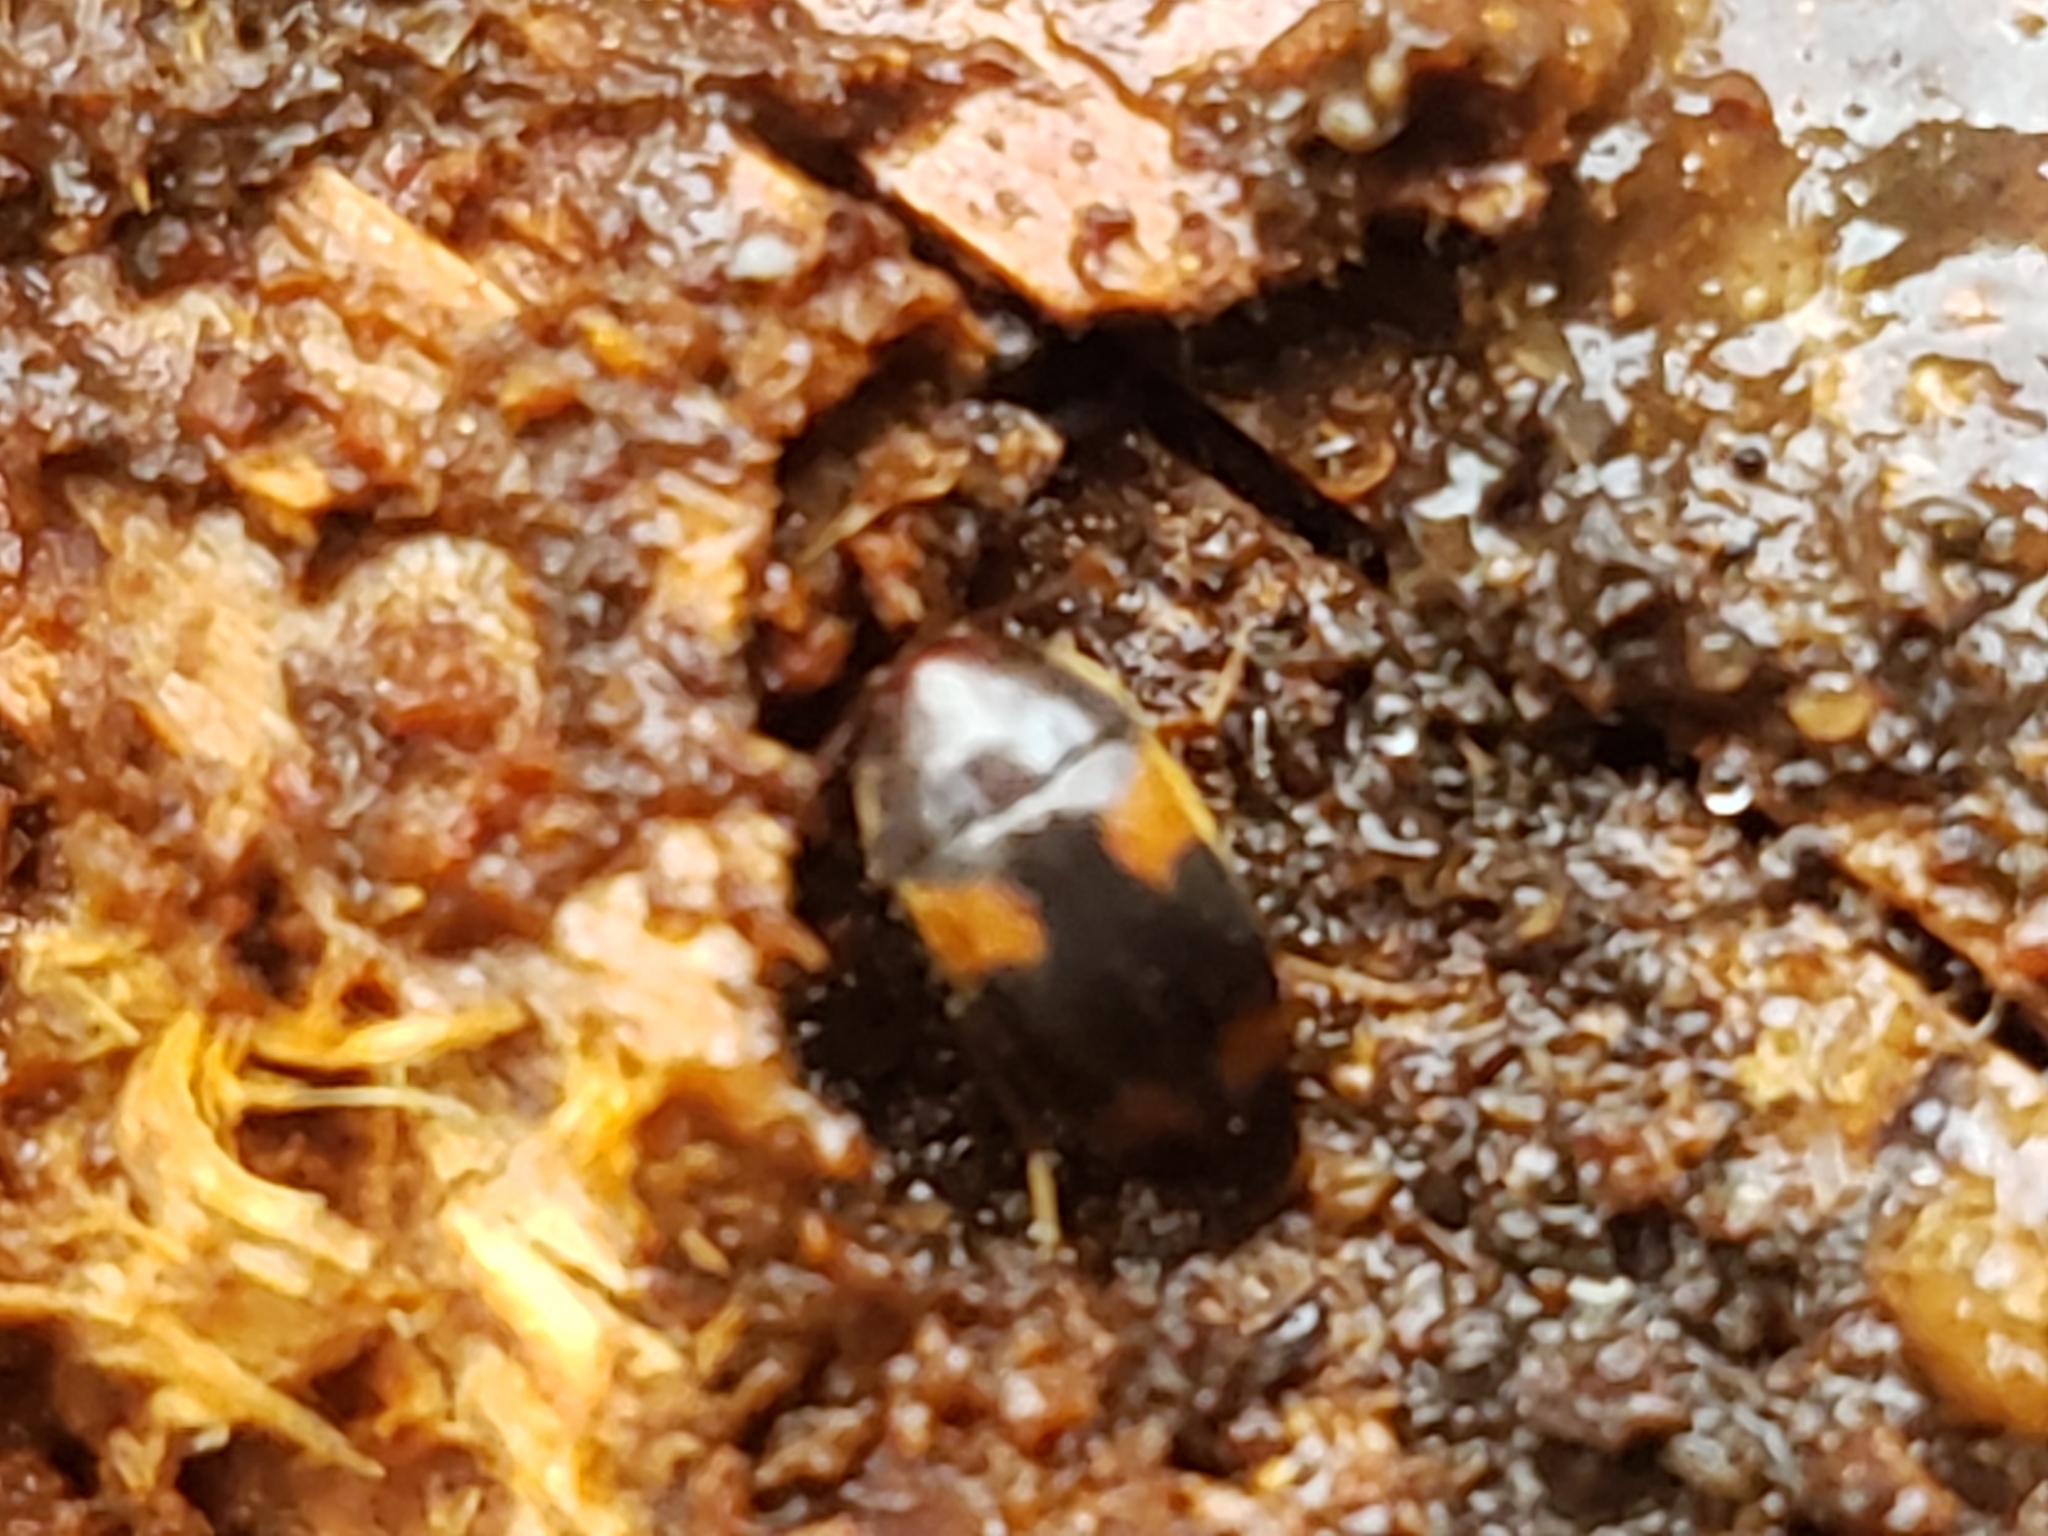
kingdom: Animalia
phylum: Arthropoda
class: Insecta
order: Coleoptera
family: Tetratomidae
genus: Holostrophus
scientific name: Holostrophus bifasciatus
